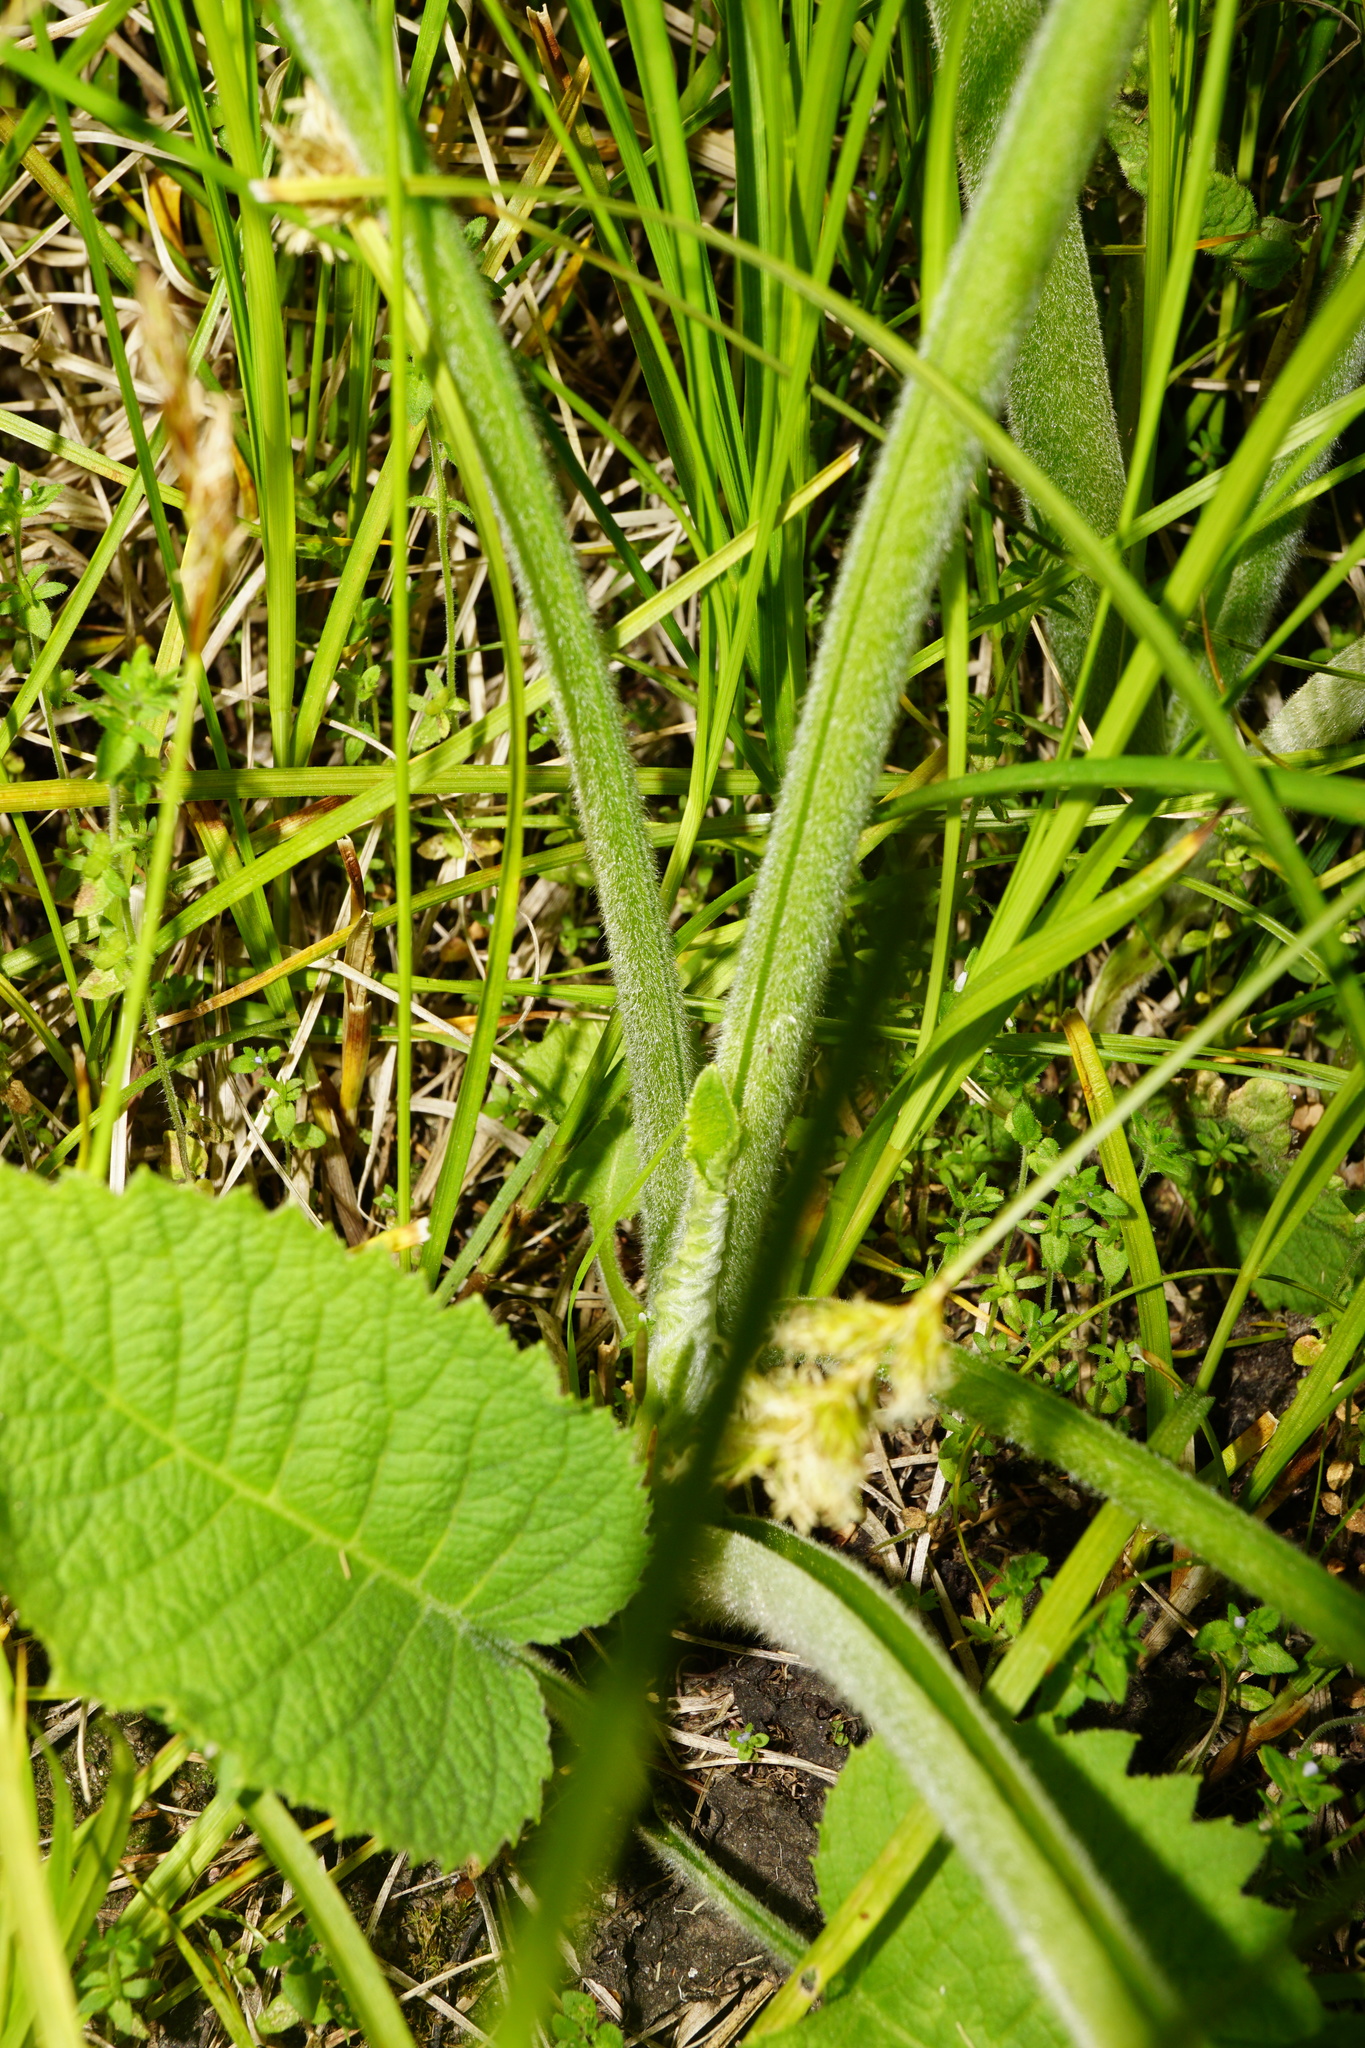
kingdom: Plantae
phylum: Tracheophyta
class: Magnoliopsida
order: Asterales
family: Asteraceae
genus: Telekia
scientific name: Telekia speciosa
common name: Yellow oxeye
